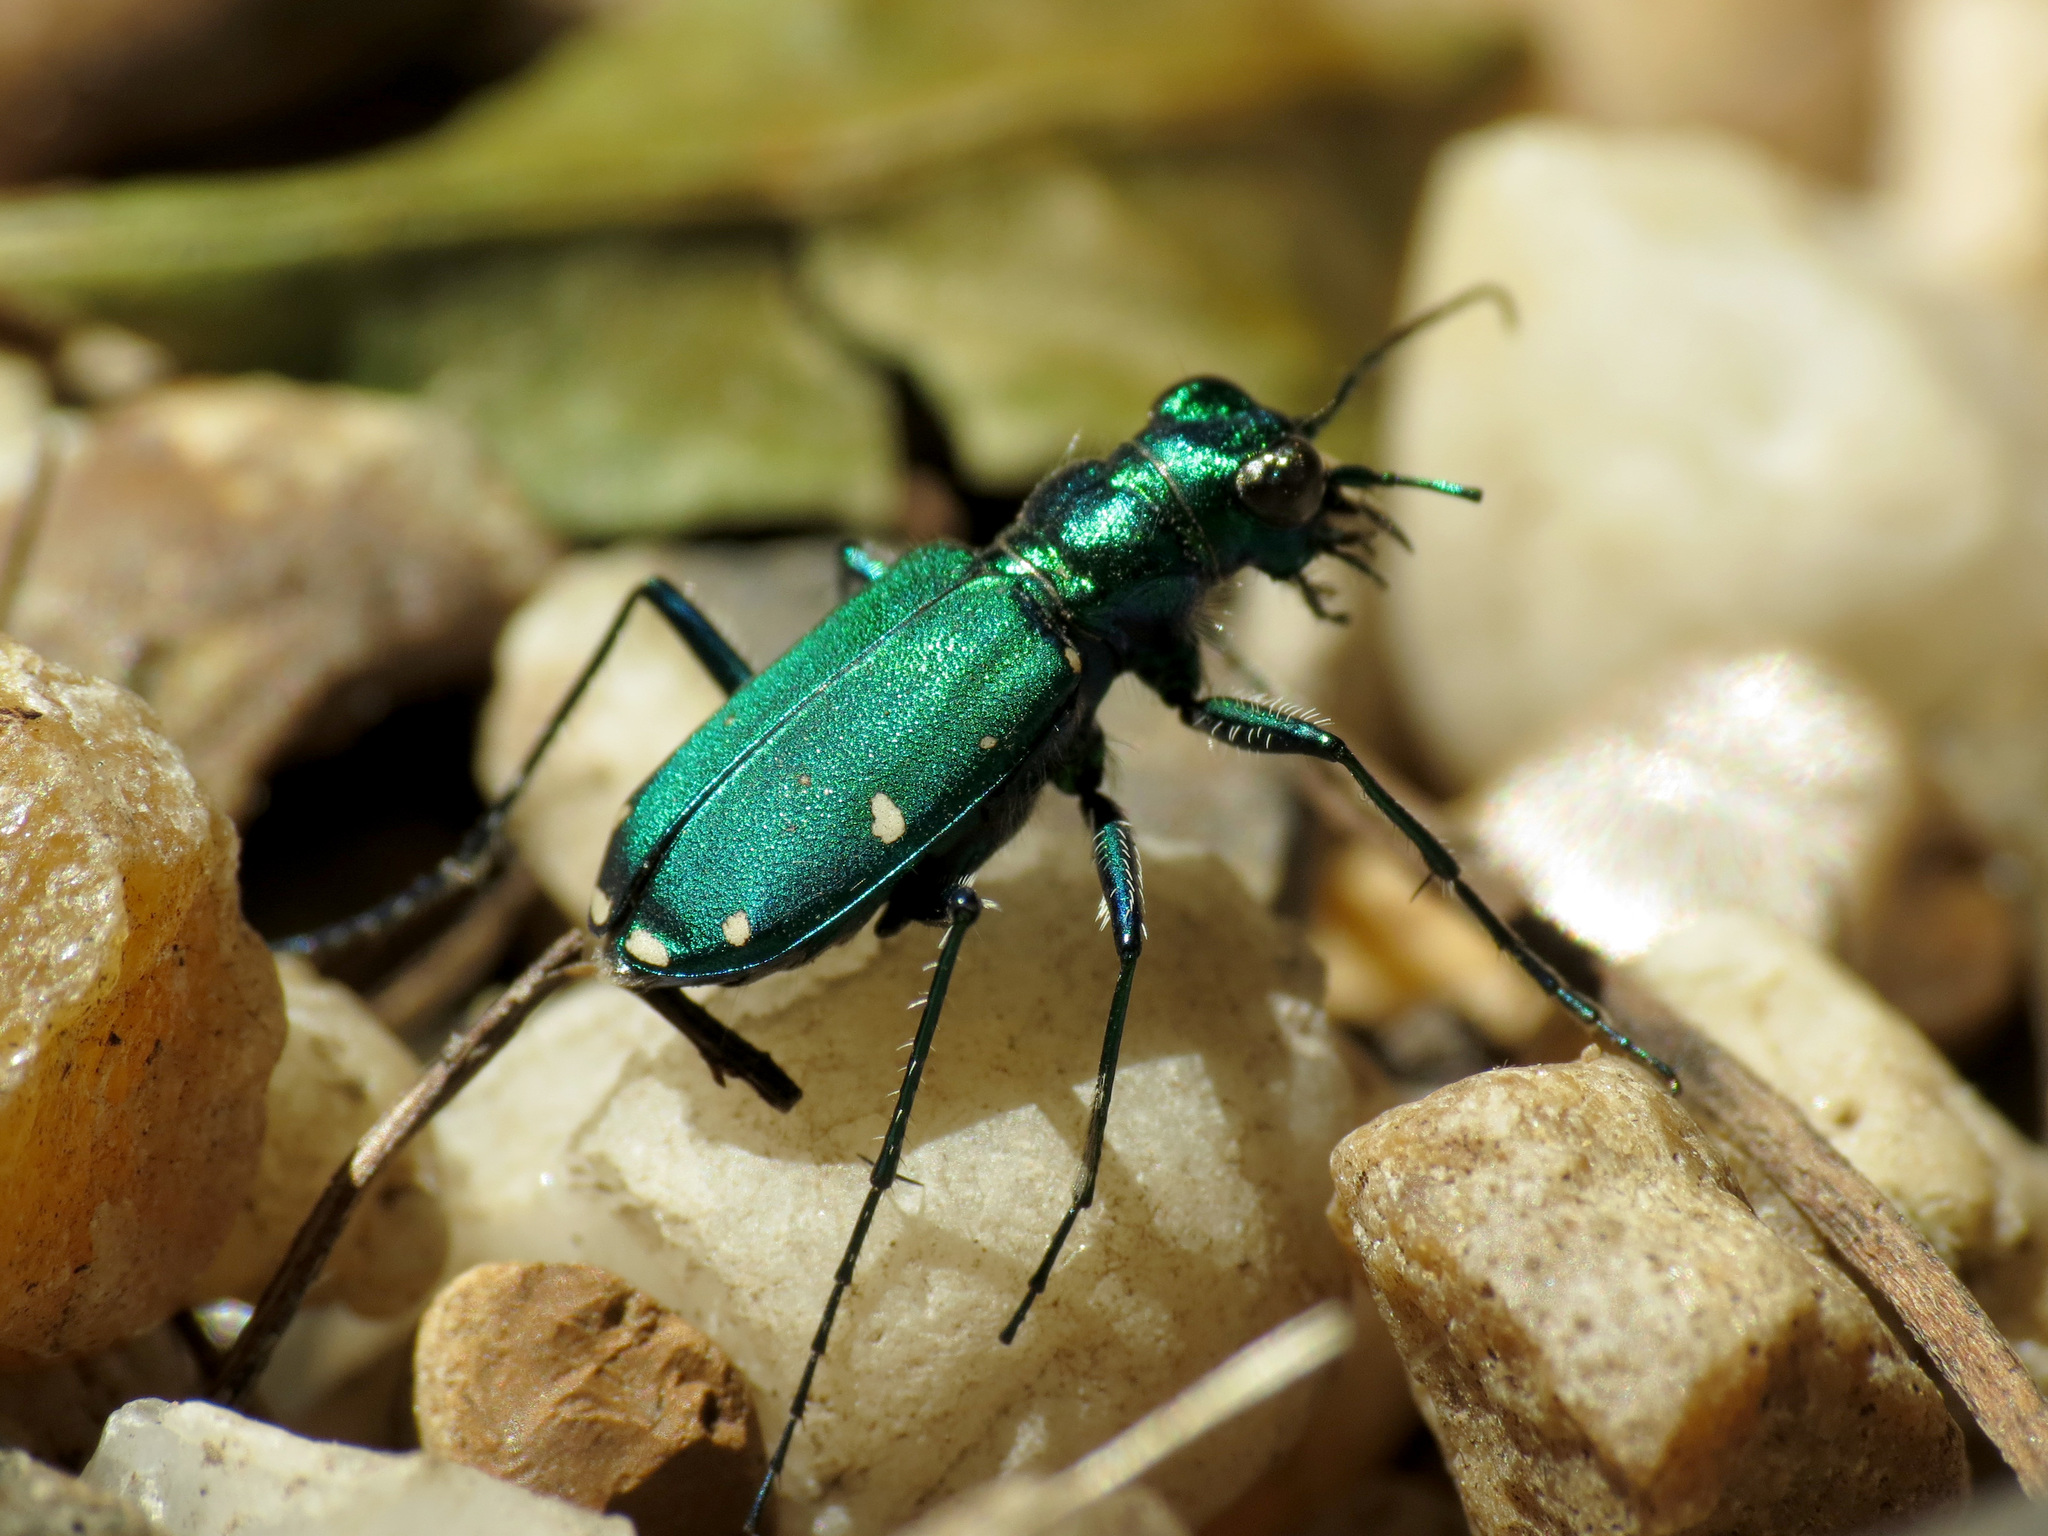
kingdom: Animalia
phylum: Arthropoda
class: Insecta
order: Coleoptera
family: Carabidae
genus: Cicindela
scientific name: Cicindela sexguttata
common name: Six-spotted tiger beetle
